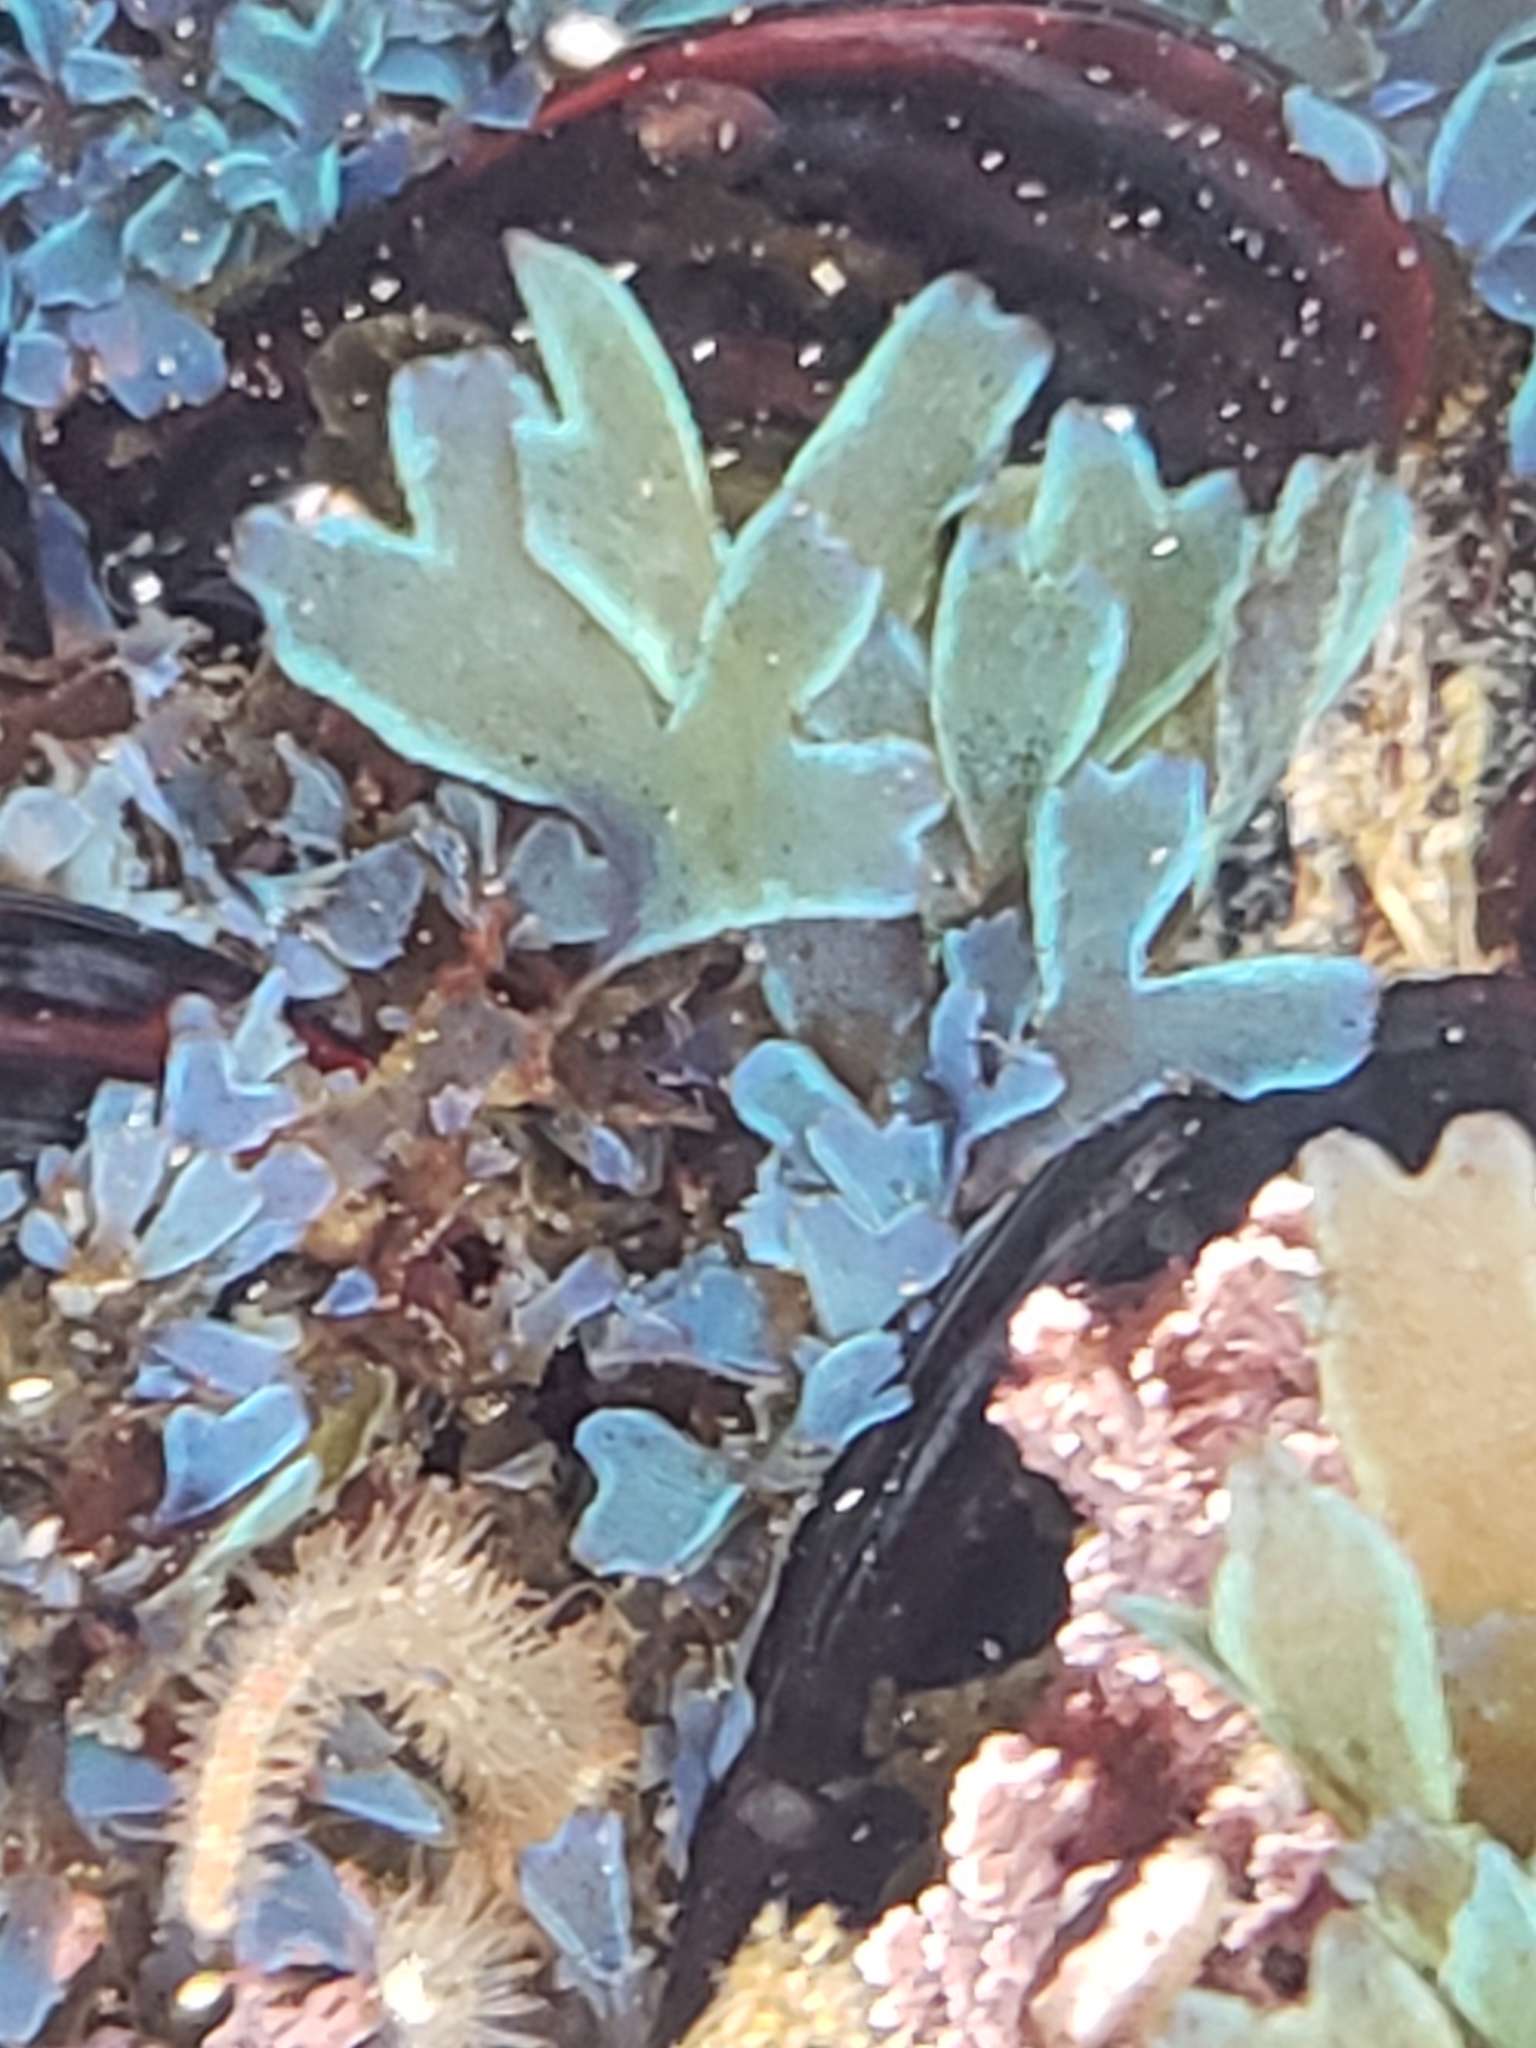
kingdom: Chromista
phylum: Ochrophyta
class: Phaeophyceae
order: Dictyotales
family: Dictyotaceae
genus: Dictyota
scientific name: Dictyota flabellata
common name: Brown algae
